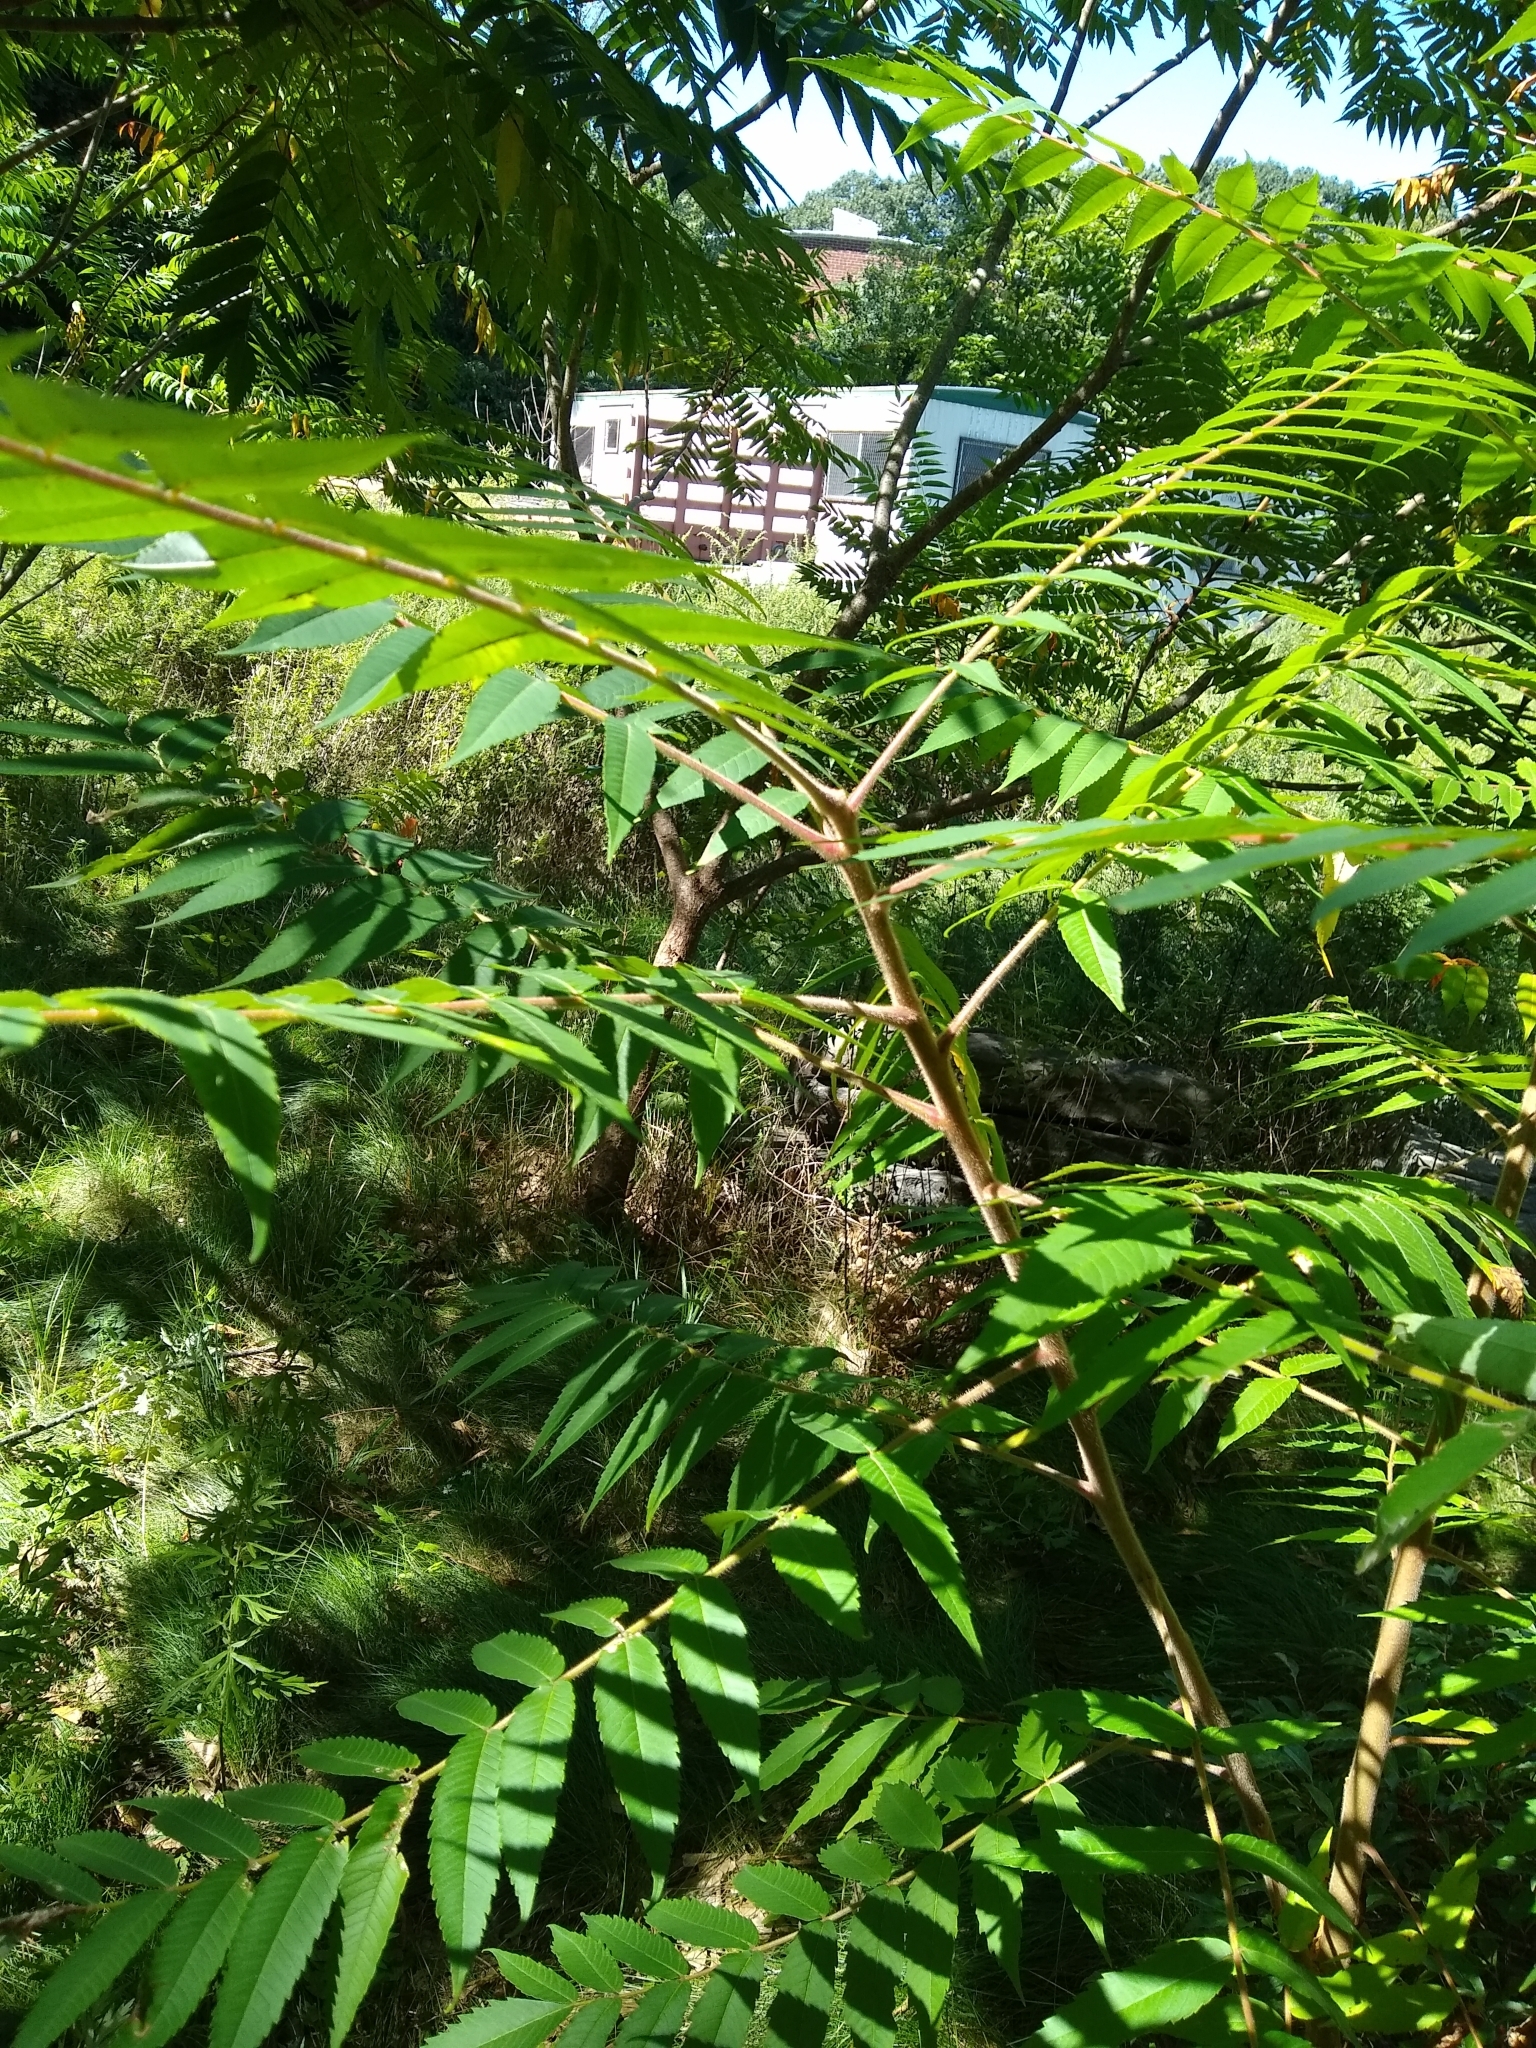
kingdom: Plantae
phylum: Tracheophyta
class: Magnoliopsida
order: Sapindales
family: Anacardiaceae
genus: Rhus
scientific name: Rhus typhina
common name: Staghorn sumac
